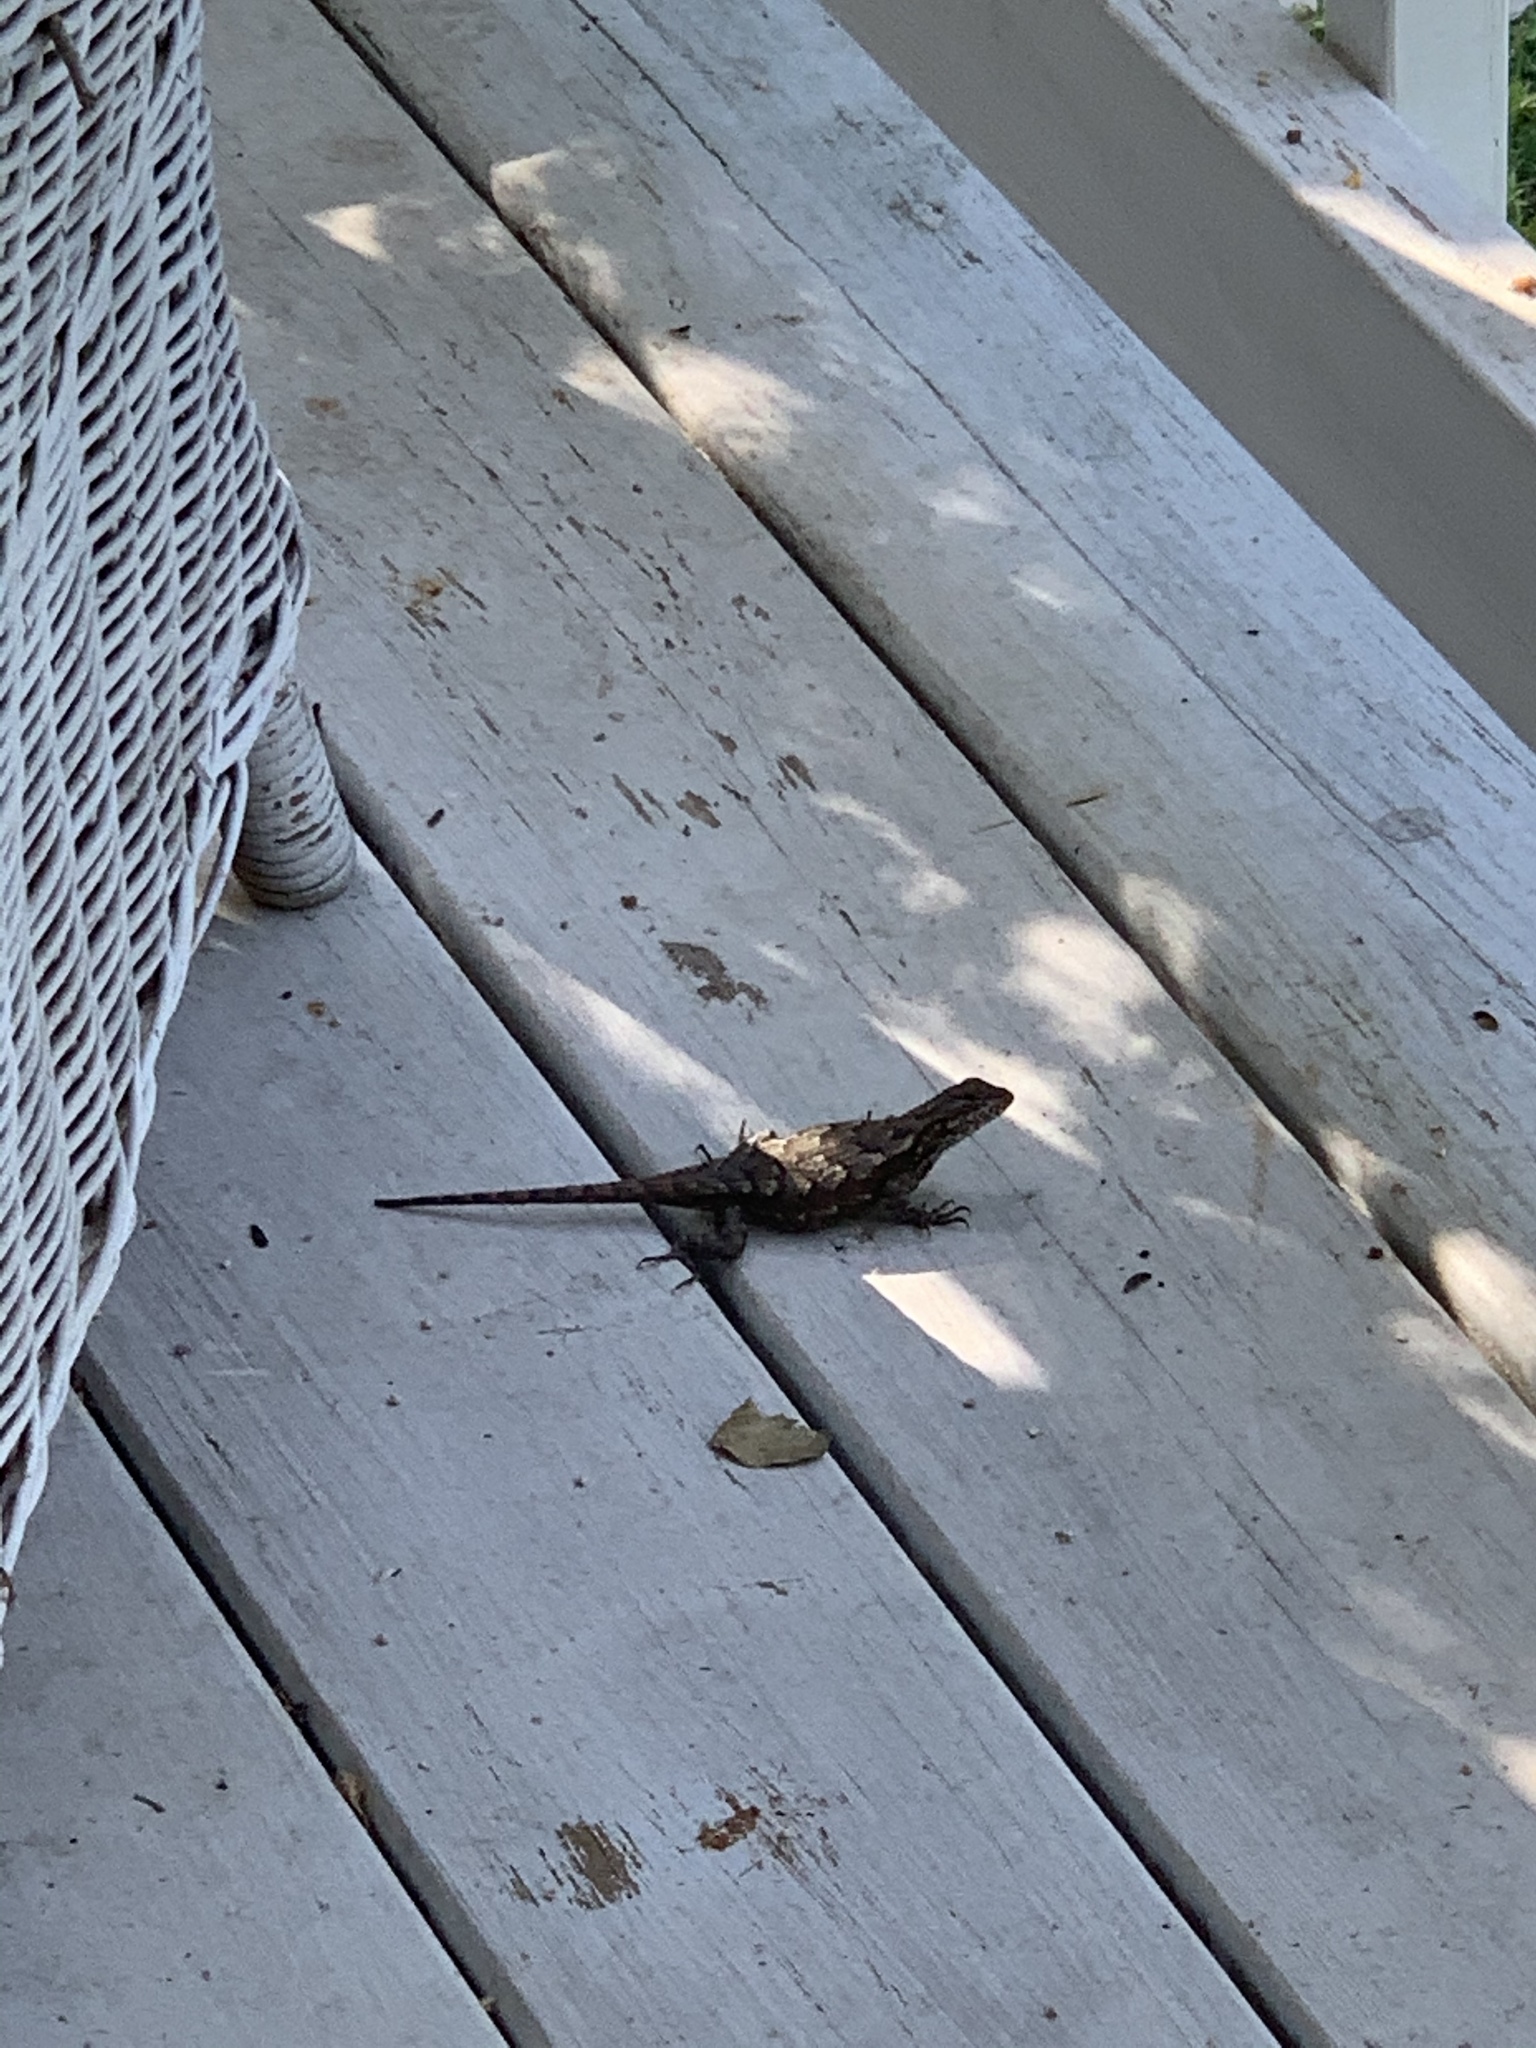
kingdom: Animalia
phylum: Chordata
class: Squamata
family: Phrynosomatidae
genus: Sceloporus
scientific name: Sceloporus undulatus
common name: Eastern fence lizard
